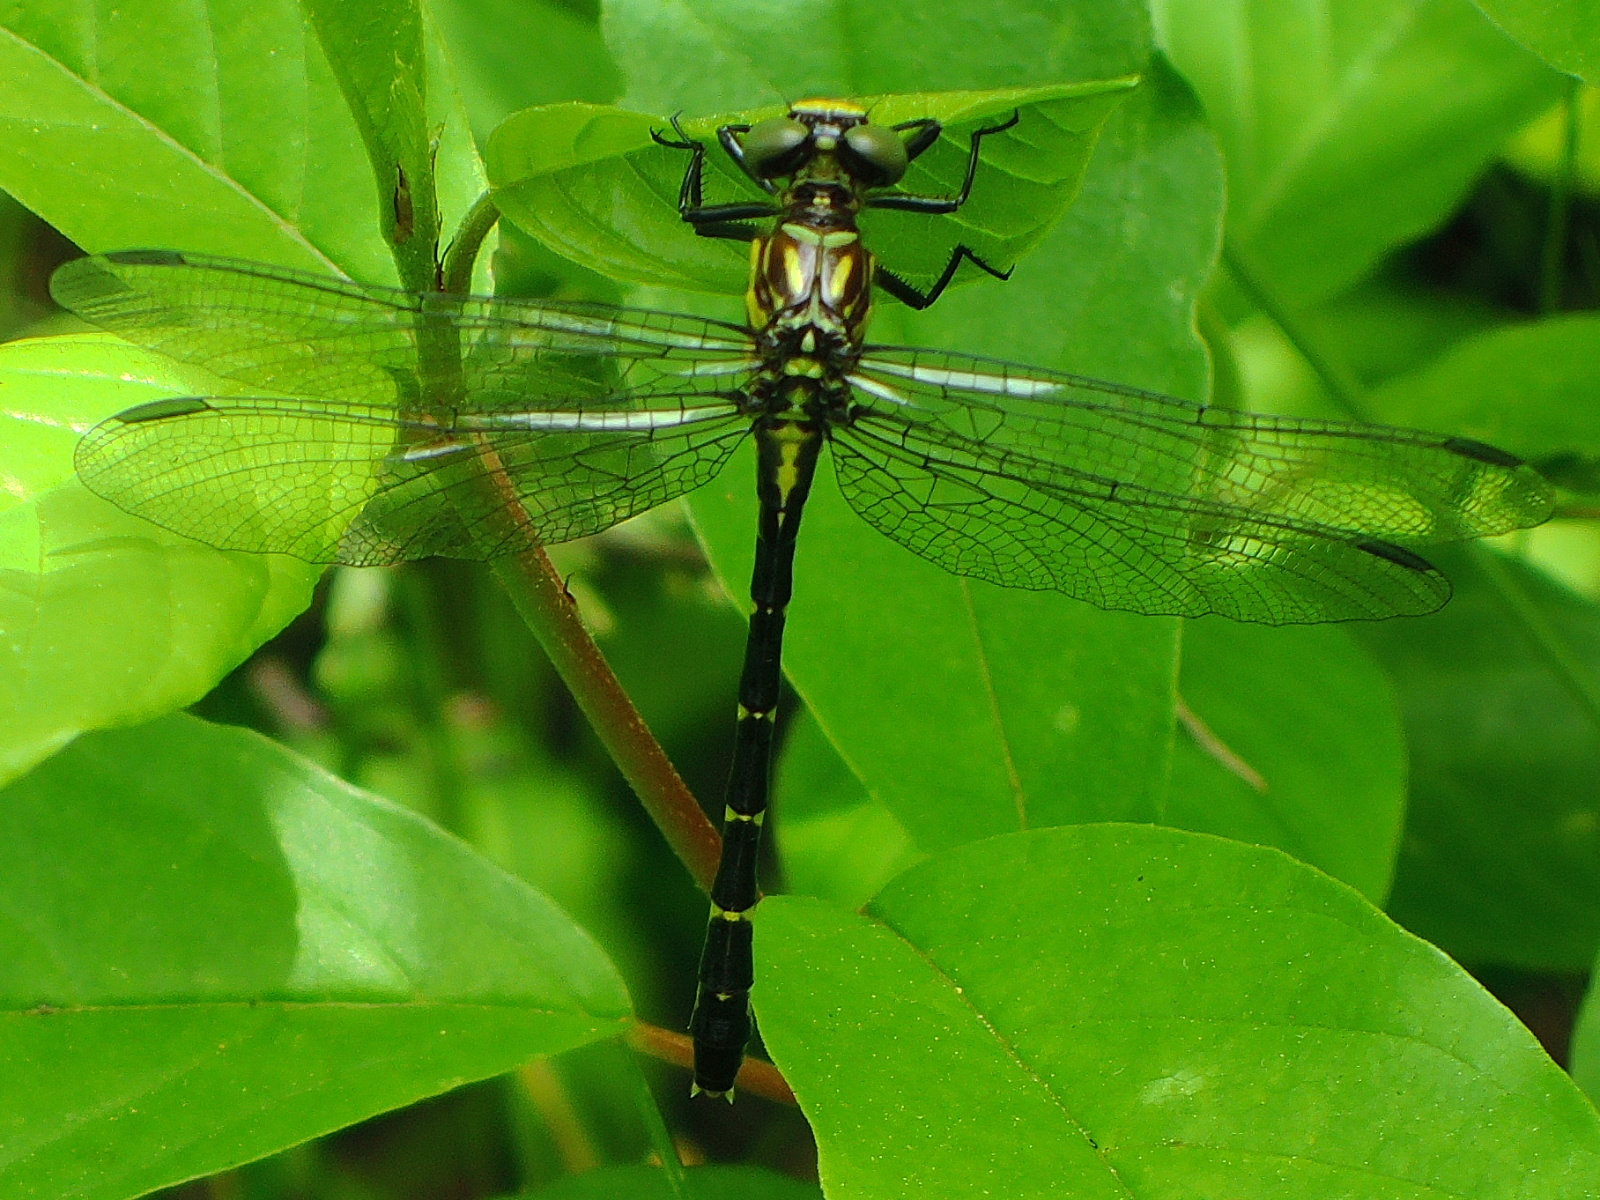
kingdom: Animalia
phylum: Arthropoda
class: Insecta
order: Odonata
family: Gomphidae
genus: Stylogomphus
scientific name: Stylogomphus albistylus
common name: Eastern least clubtail
